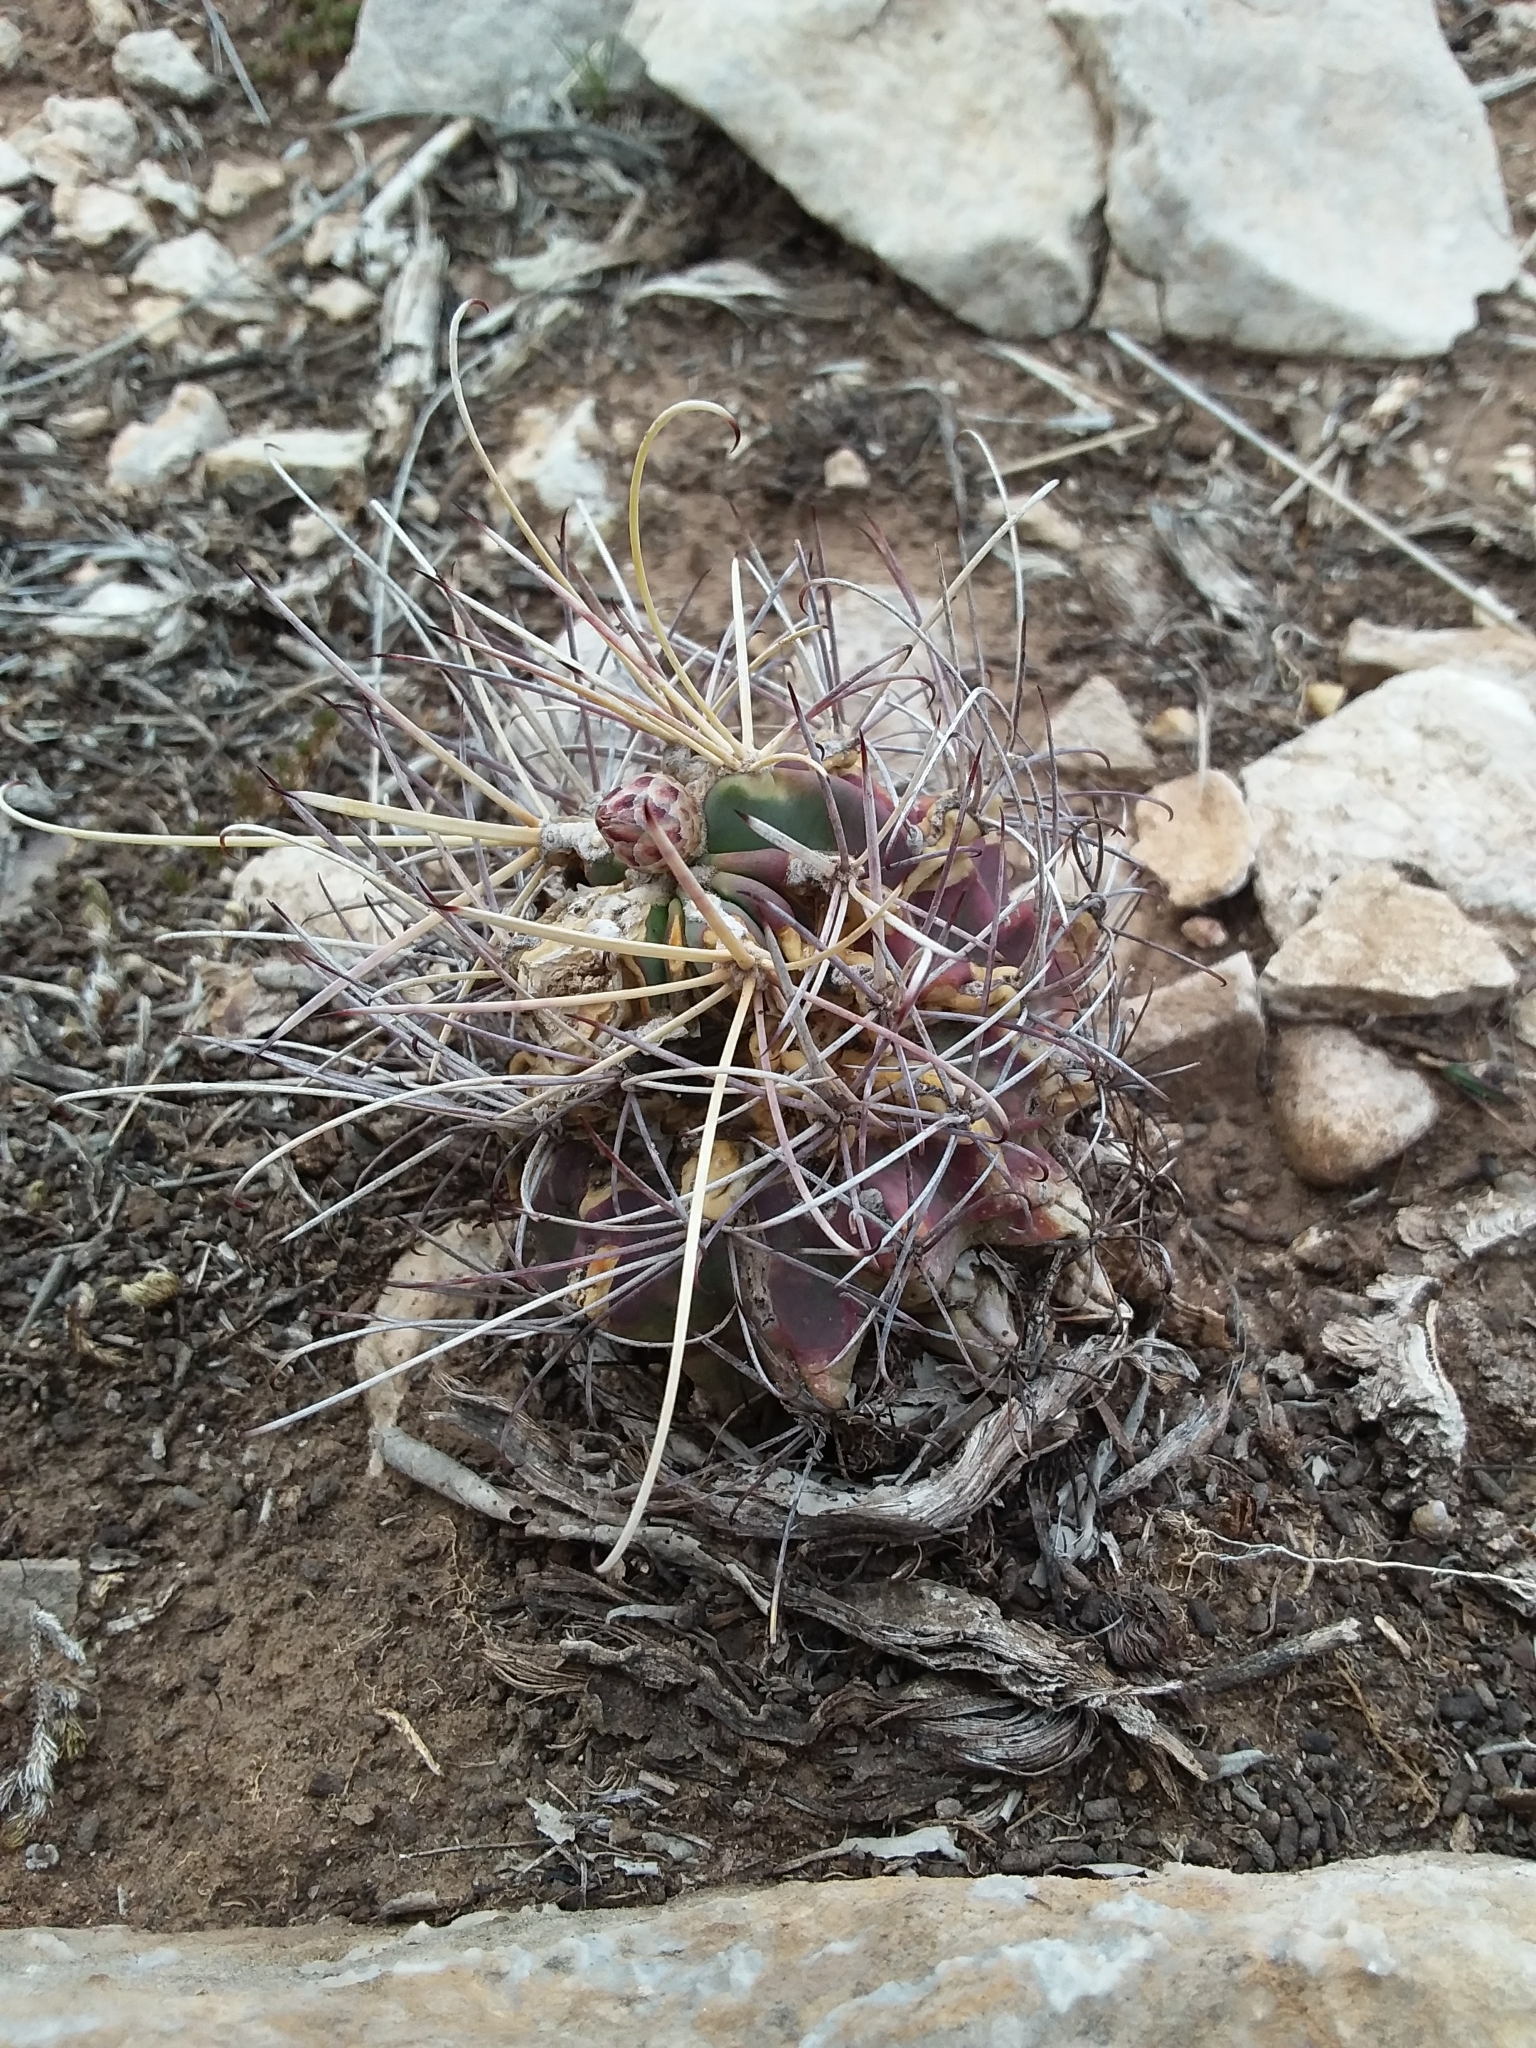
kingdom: Plantae
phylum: Tracheophyta
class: Magnoliopsida
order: Caryophyllales
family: Cactaceae
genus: Ferocactus
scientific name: Ferocactus uncinatus
